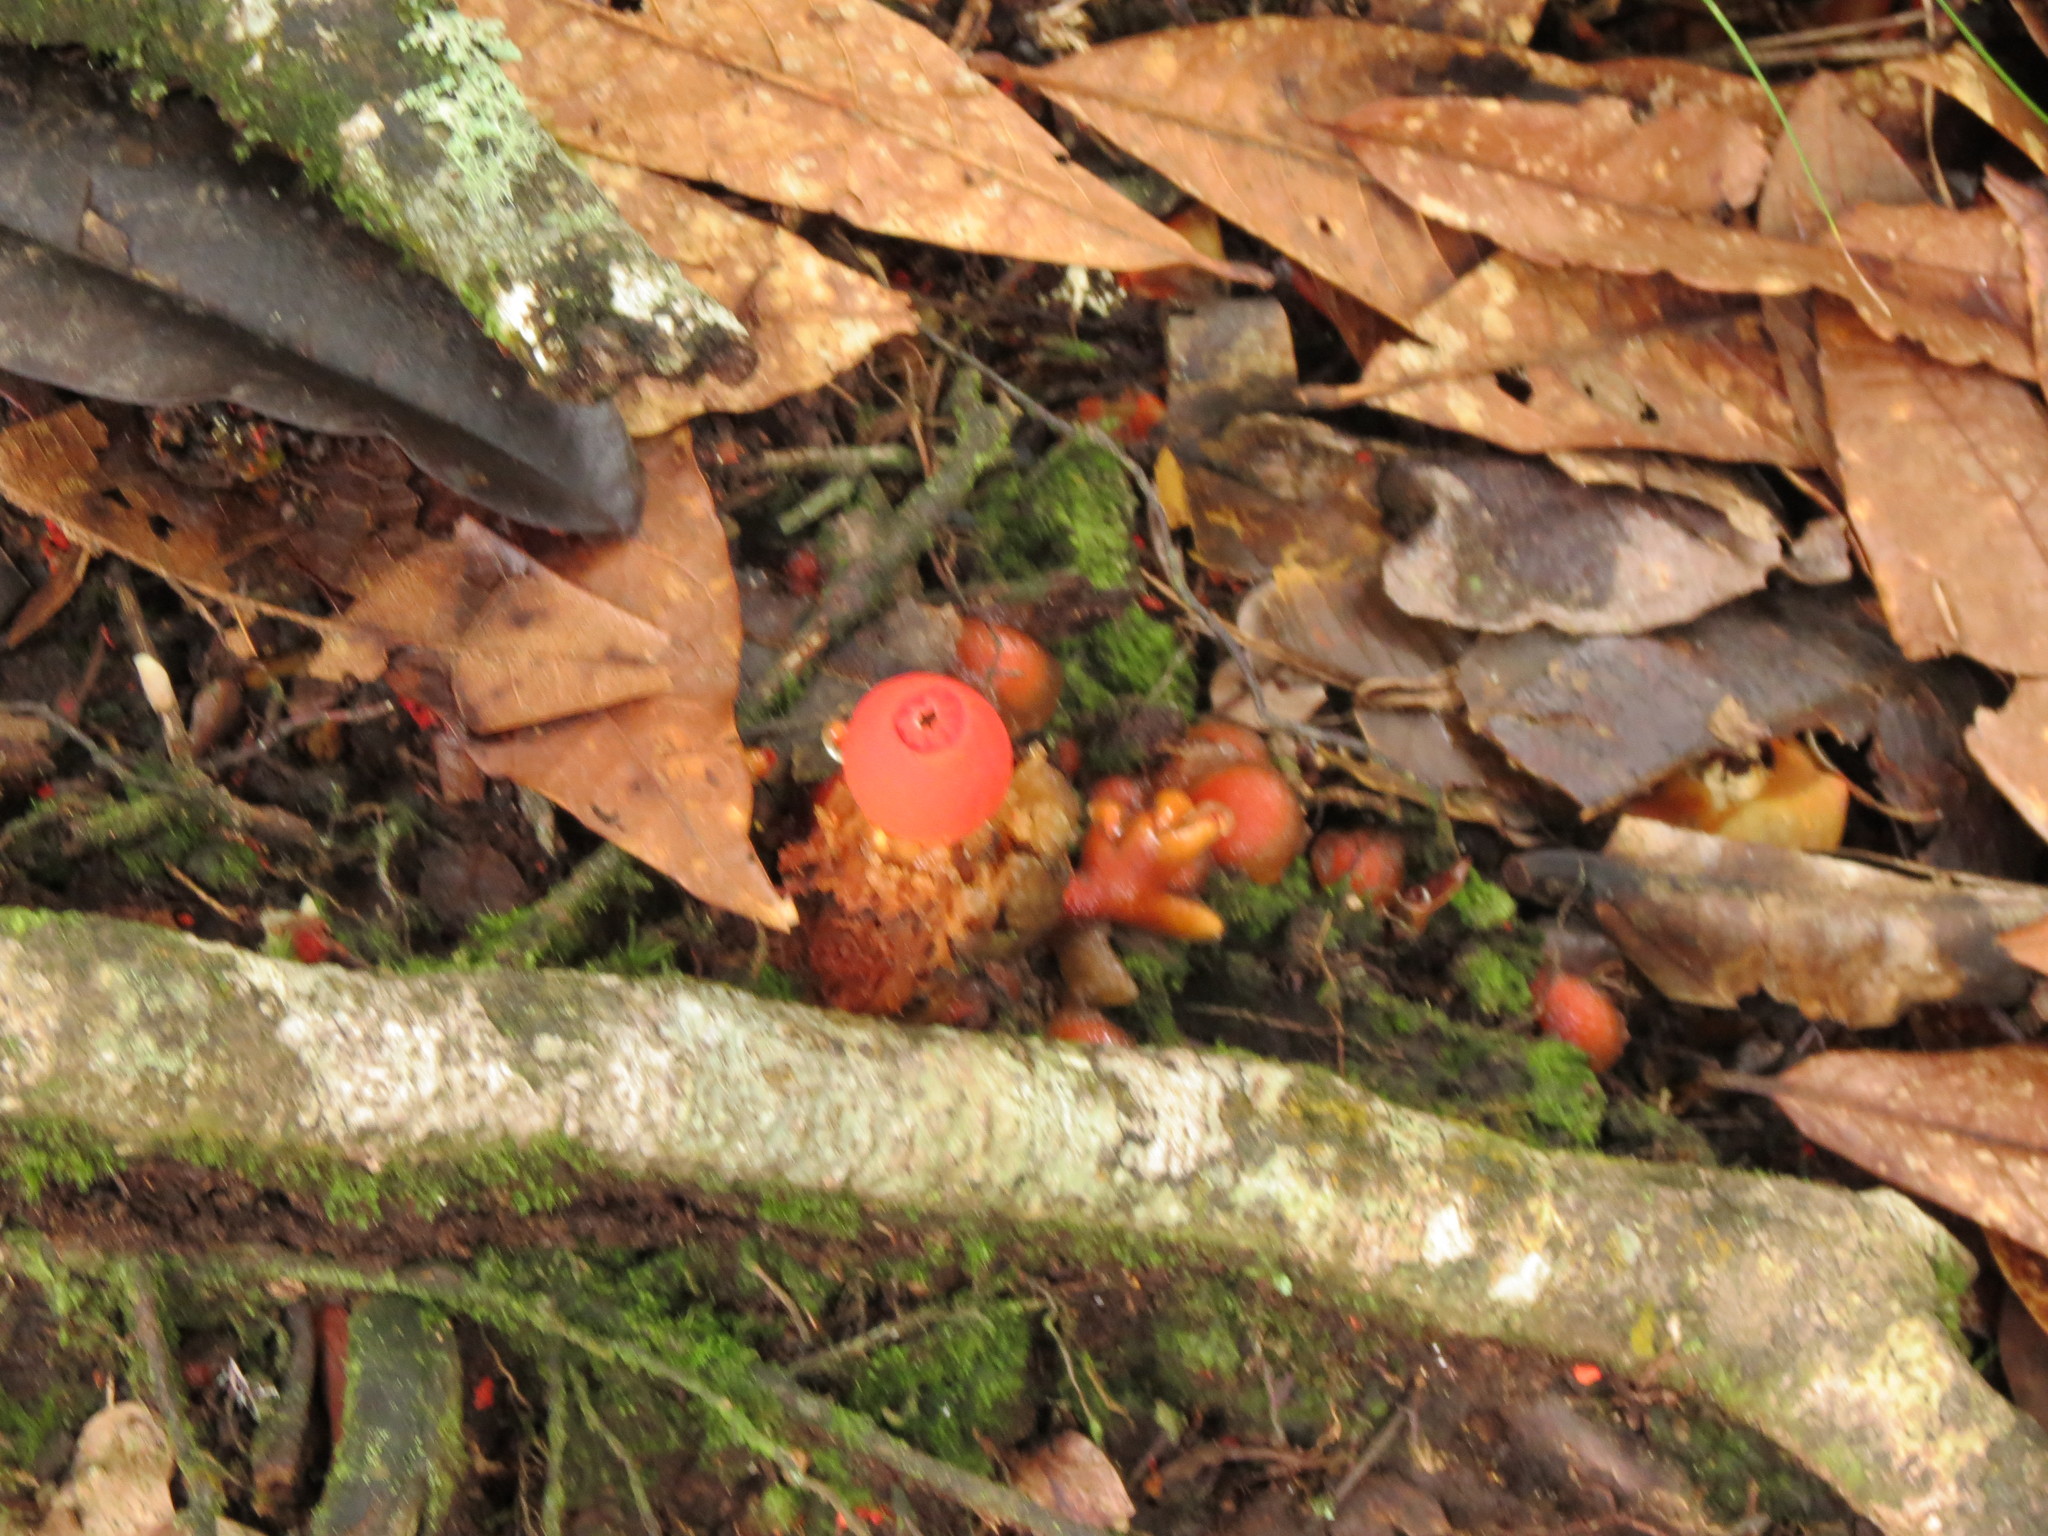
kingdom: Fungi
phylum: Basidiomycota
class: Agaricomycetes
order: Boletales
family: Calostomataceae
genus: Calostoma
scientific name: Calostoma cinnabarinum
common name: Stalked puffball-in-aspic
